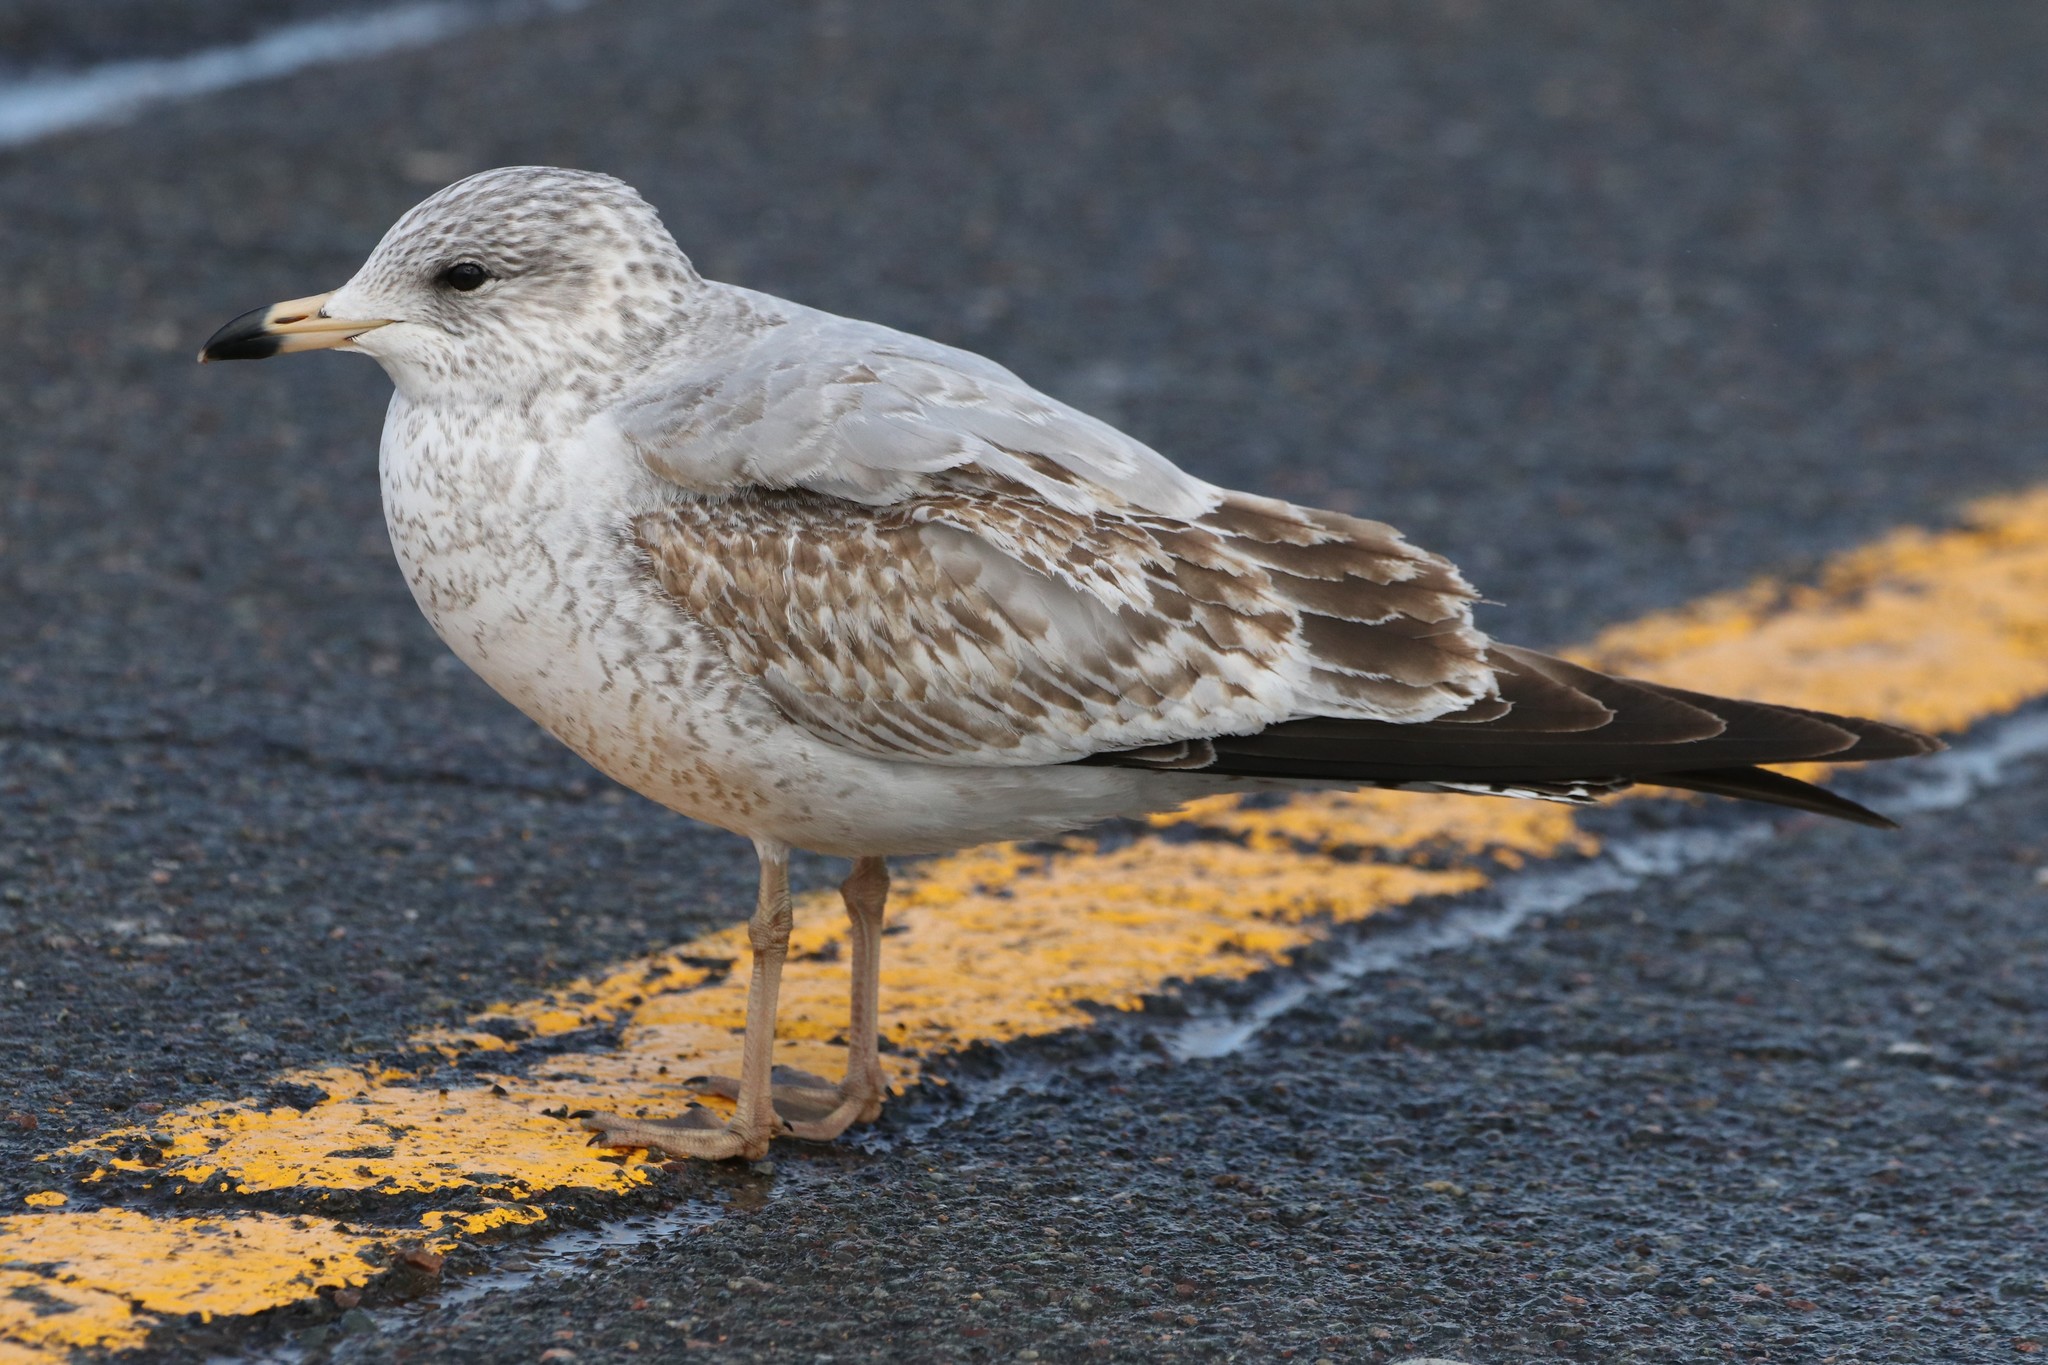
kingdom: Animalia
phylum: Chordata
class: Aves
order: Charadriiformes
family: Laridae
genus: Larus
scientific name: Larus delawarensis
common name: Ring-billed gull
